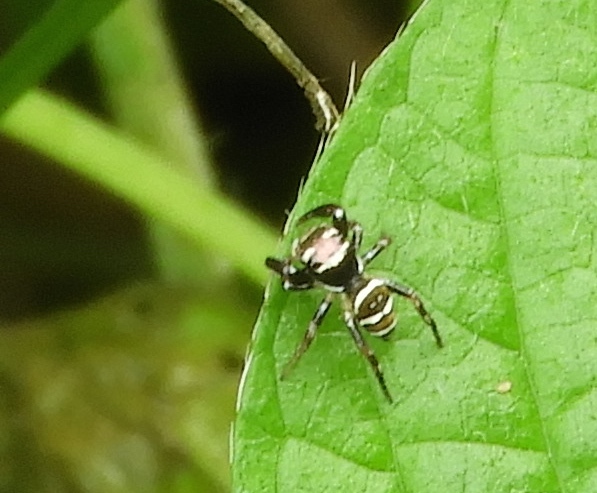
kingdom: Animalia
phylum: Arthropoda
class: Arachnida
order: Araneae
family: Salticidae
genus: Sassacus
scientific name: Sassacus
